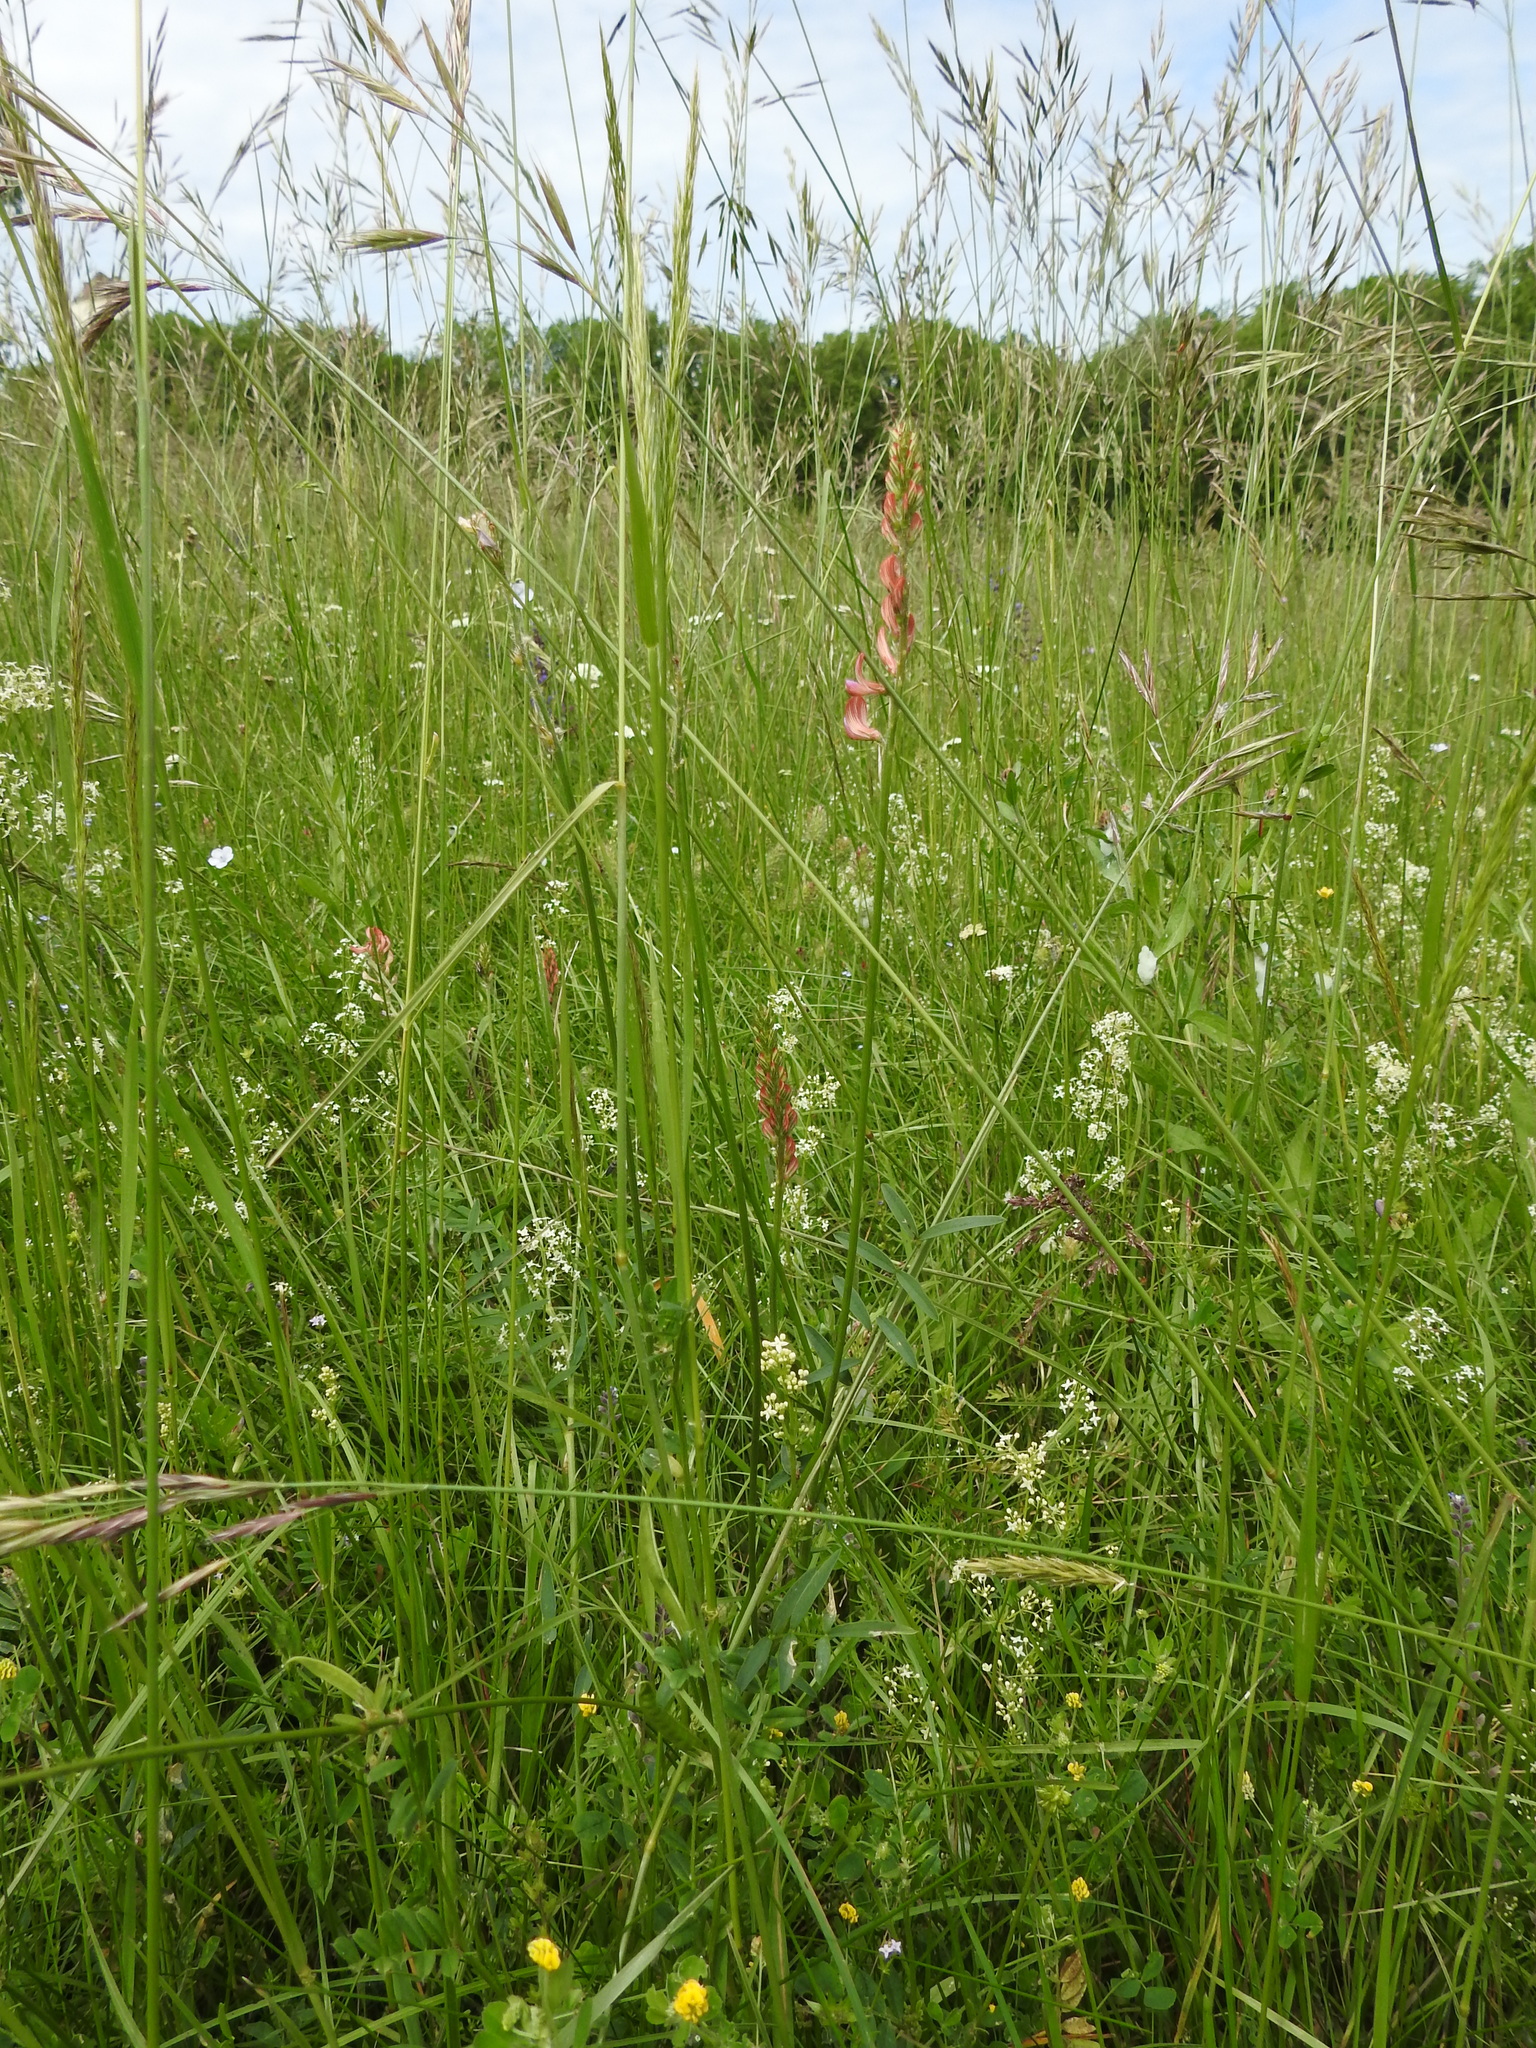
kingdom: Plantae
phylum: Tracheophyta
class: Magnoliopsida
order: Fabales
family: Fabaceae
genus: Onobrychis
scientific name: Onobrychis viciifolia
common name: Sainfoin
